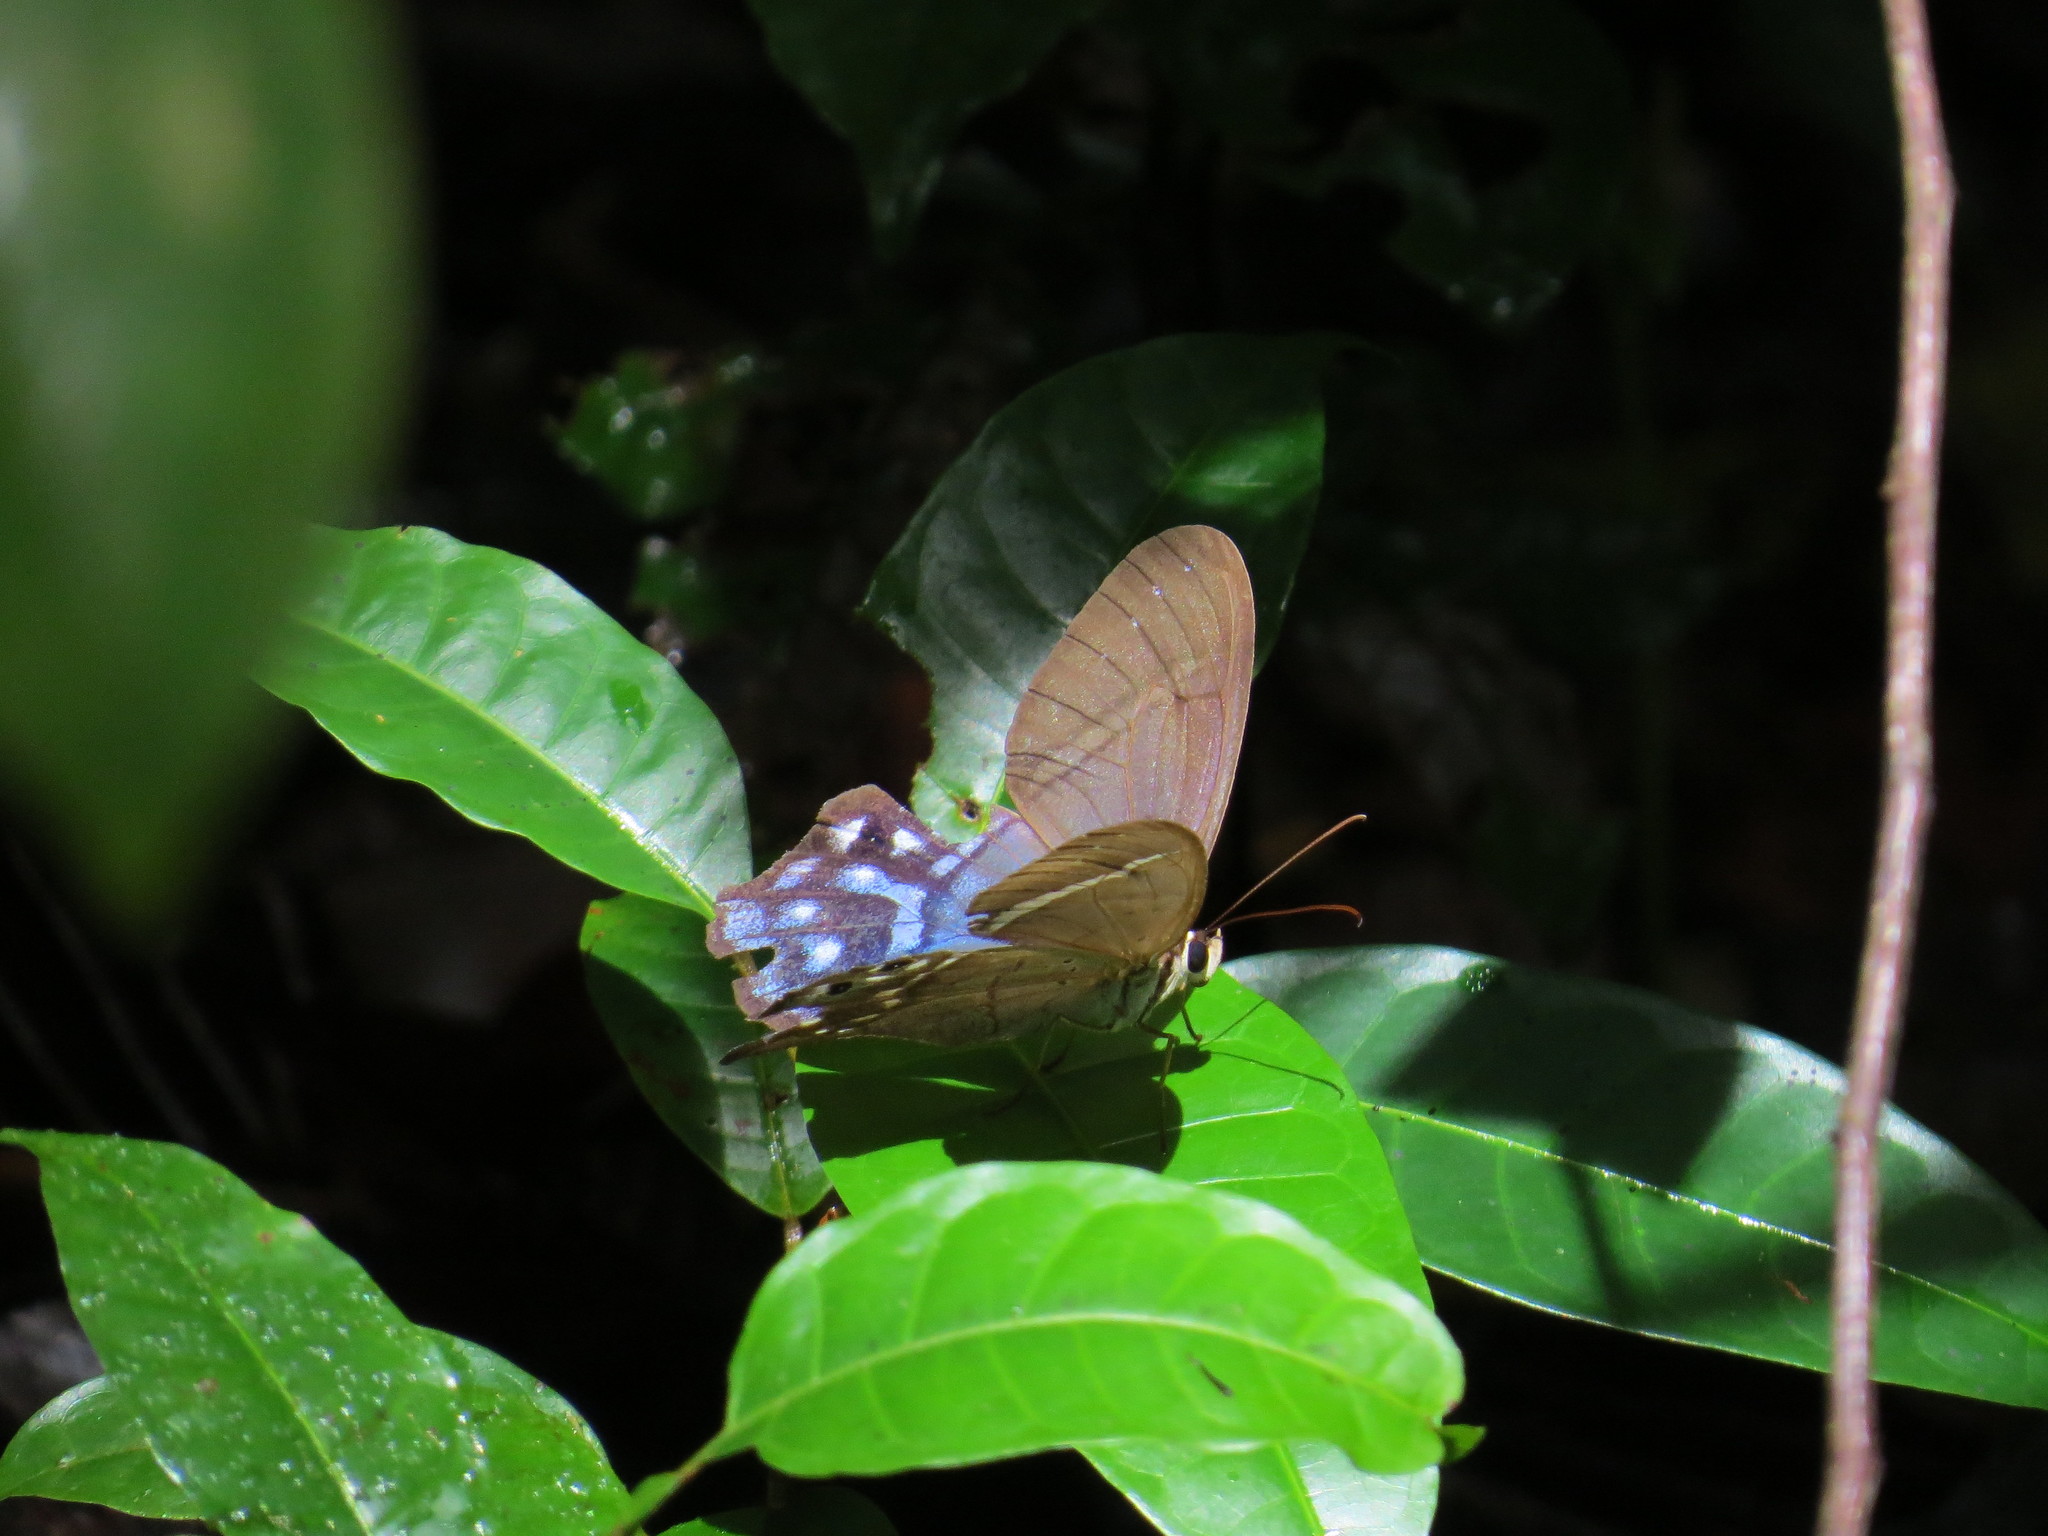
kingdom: Animalia
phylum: Arthropoda
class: Insecta
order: Lepidoptera
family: Nymphalidae
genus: Pierella
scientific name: Pierella dracontis
